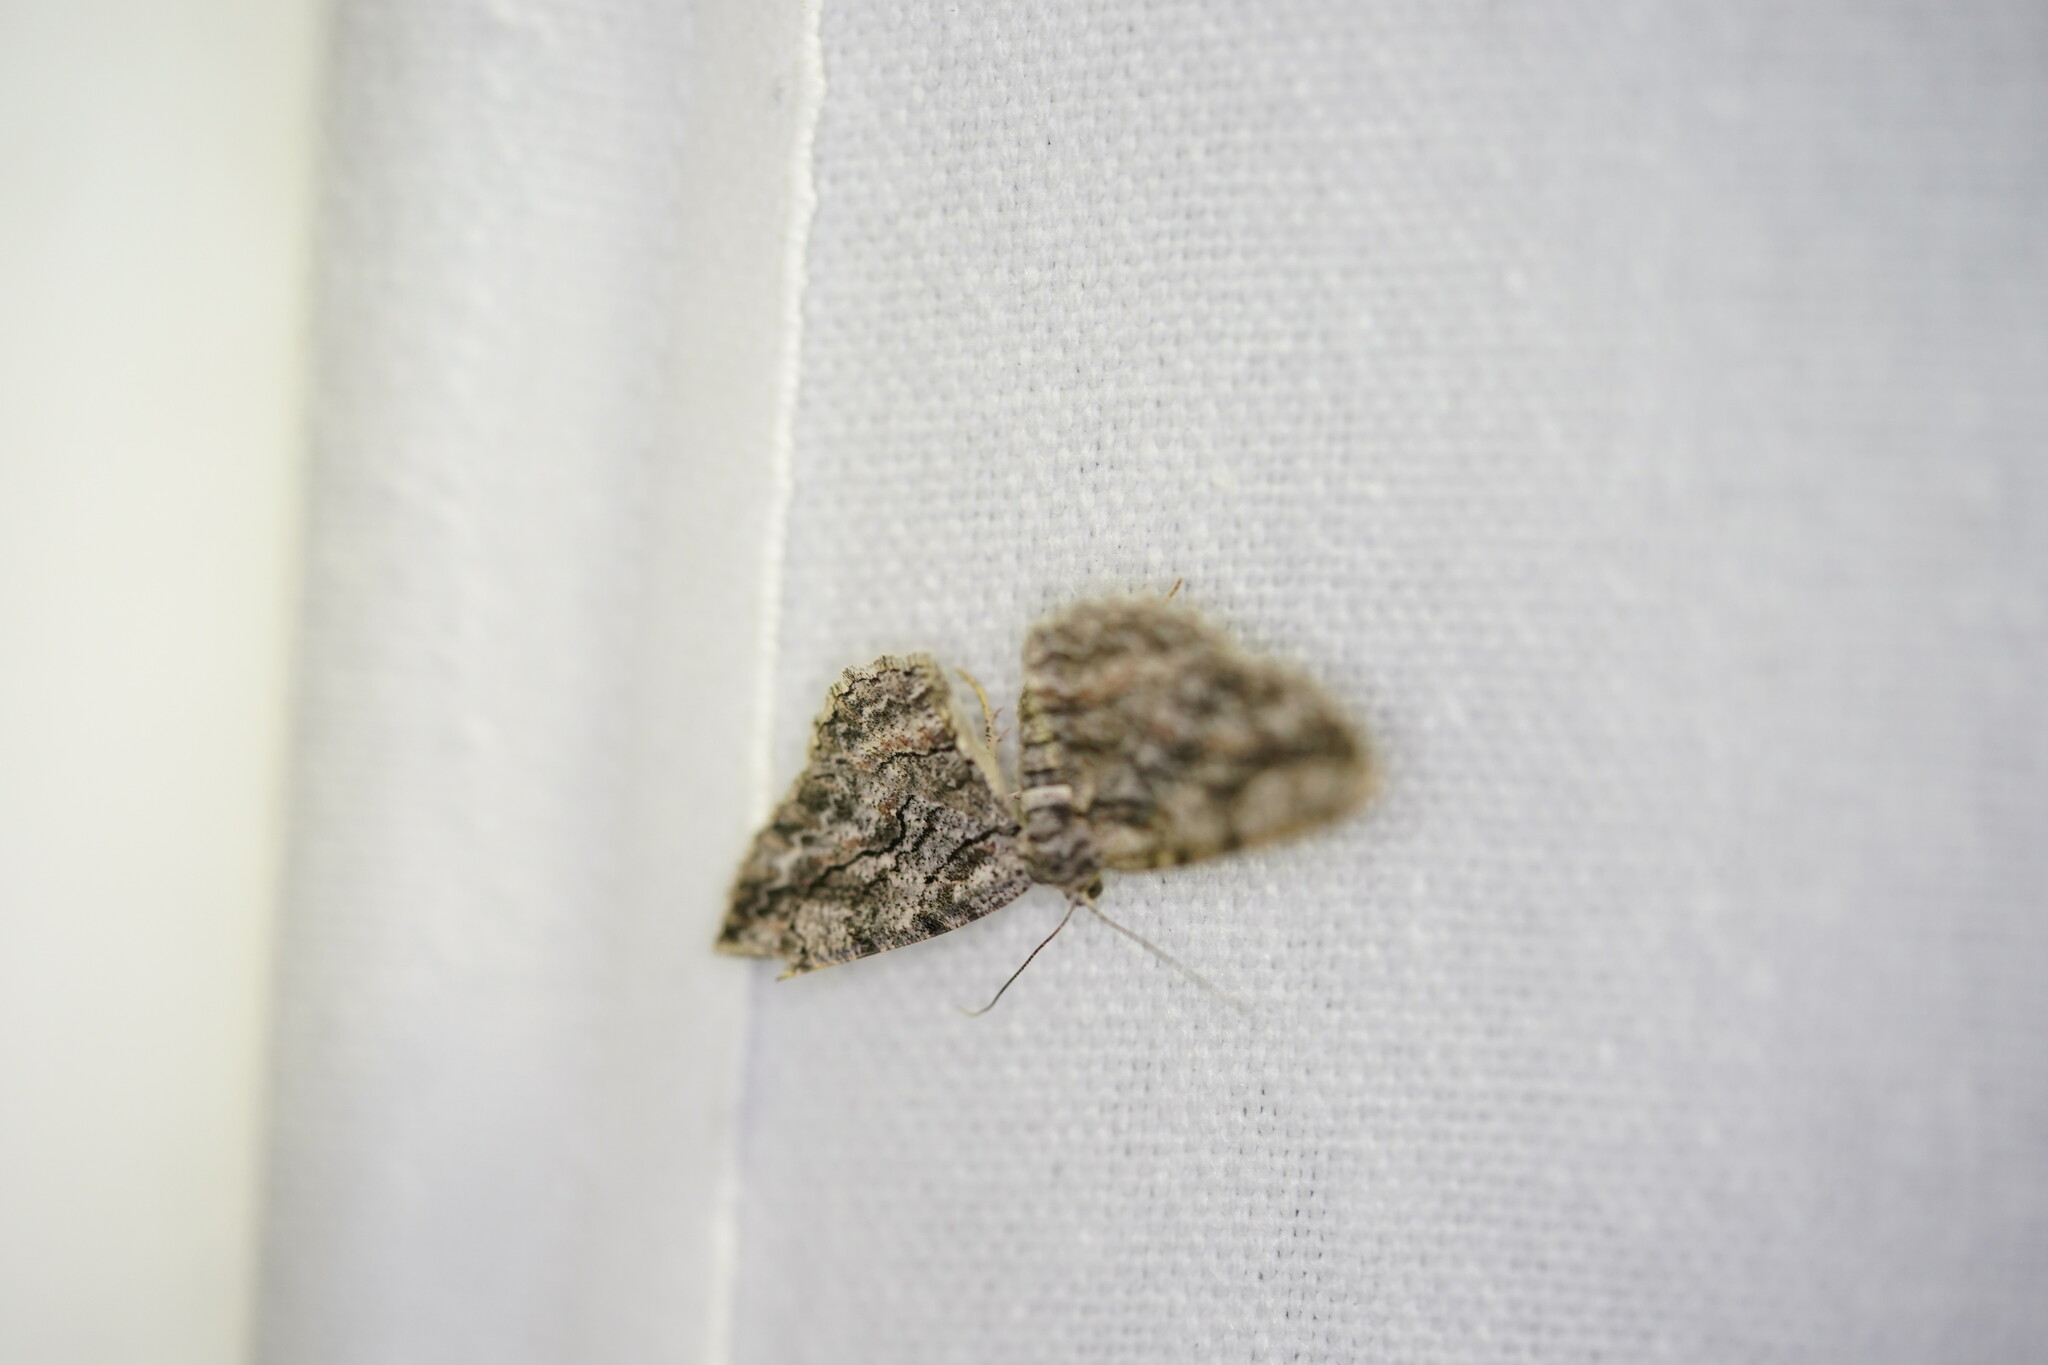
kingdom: Animalia
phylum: Arthropoda
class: Insecta
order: Lepidoptera
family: Geometridae
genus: Anavitrinella
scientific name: Anavitrinella pampinaria
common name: Common gray
